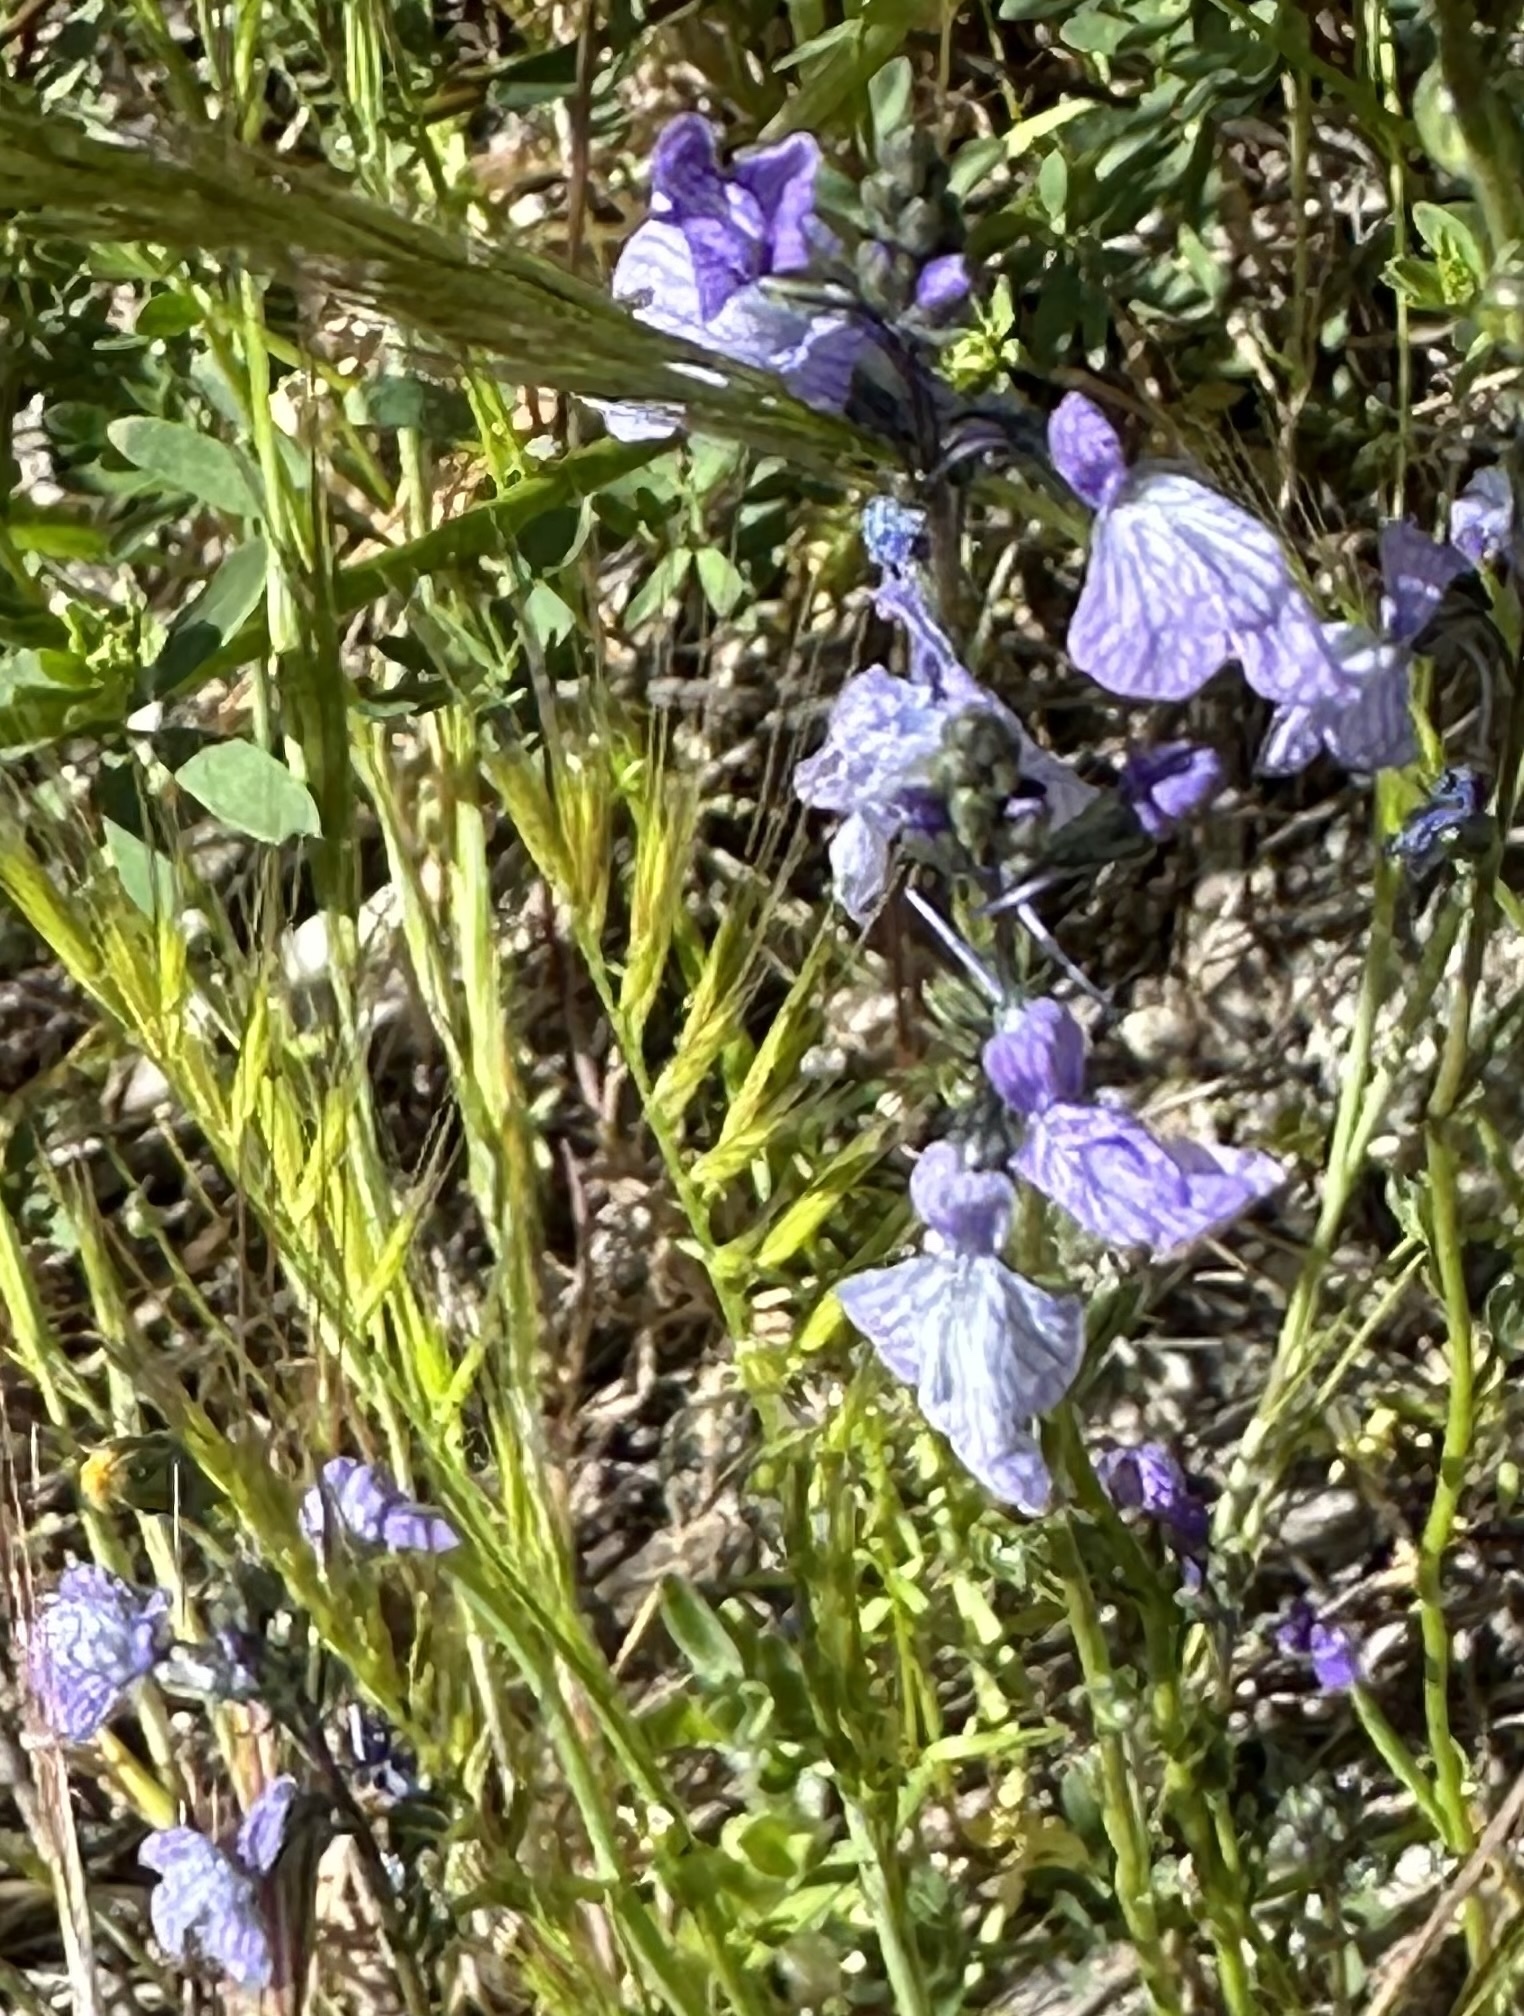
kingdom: Plantae
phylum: Tracheophyta
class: Magnoliopsida
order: Lamiales
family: Plantaginaceae
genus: Nuttallanthus
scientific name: Nuttallanthus texanus
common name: Texas toadflax
